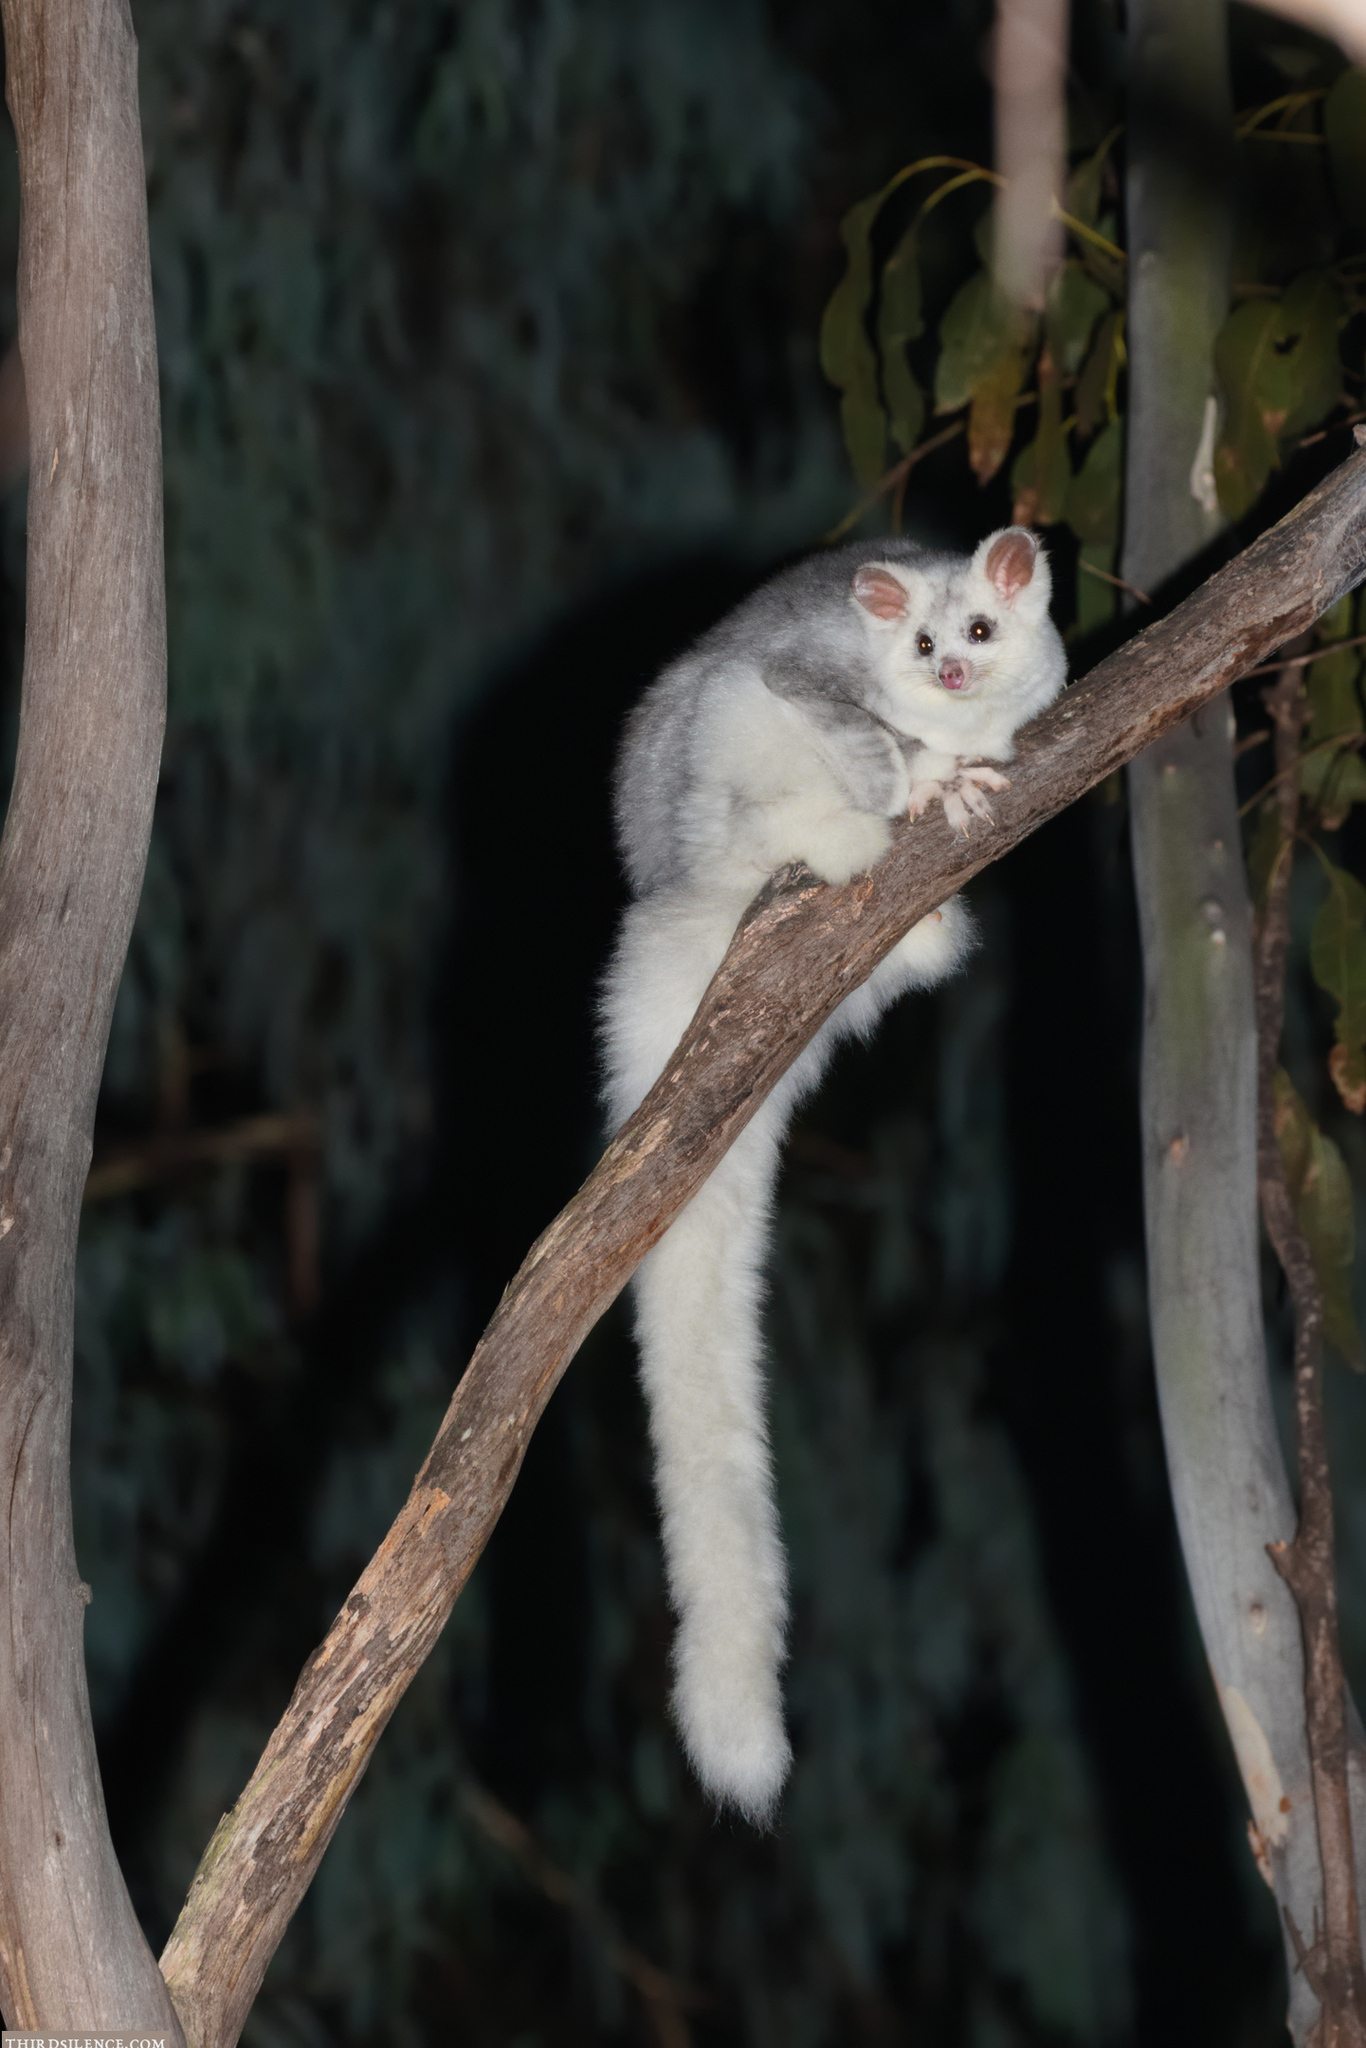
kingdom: Animalia
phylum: Chordata
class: Mammalia
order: Diprotodontia
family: Pseudocheiridae
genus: Petauroides
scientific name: Petauroides volans
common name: Greater glider
